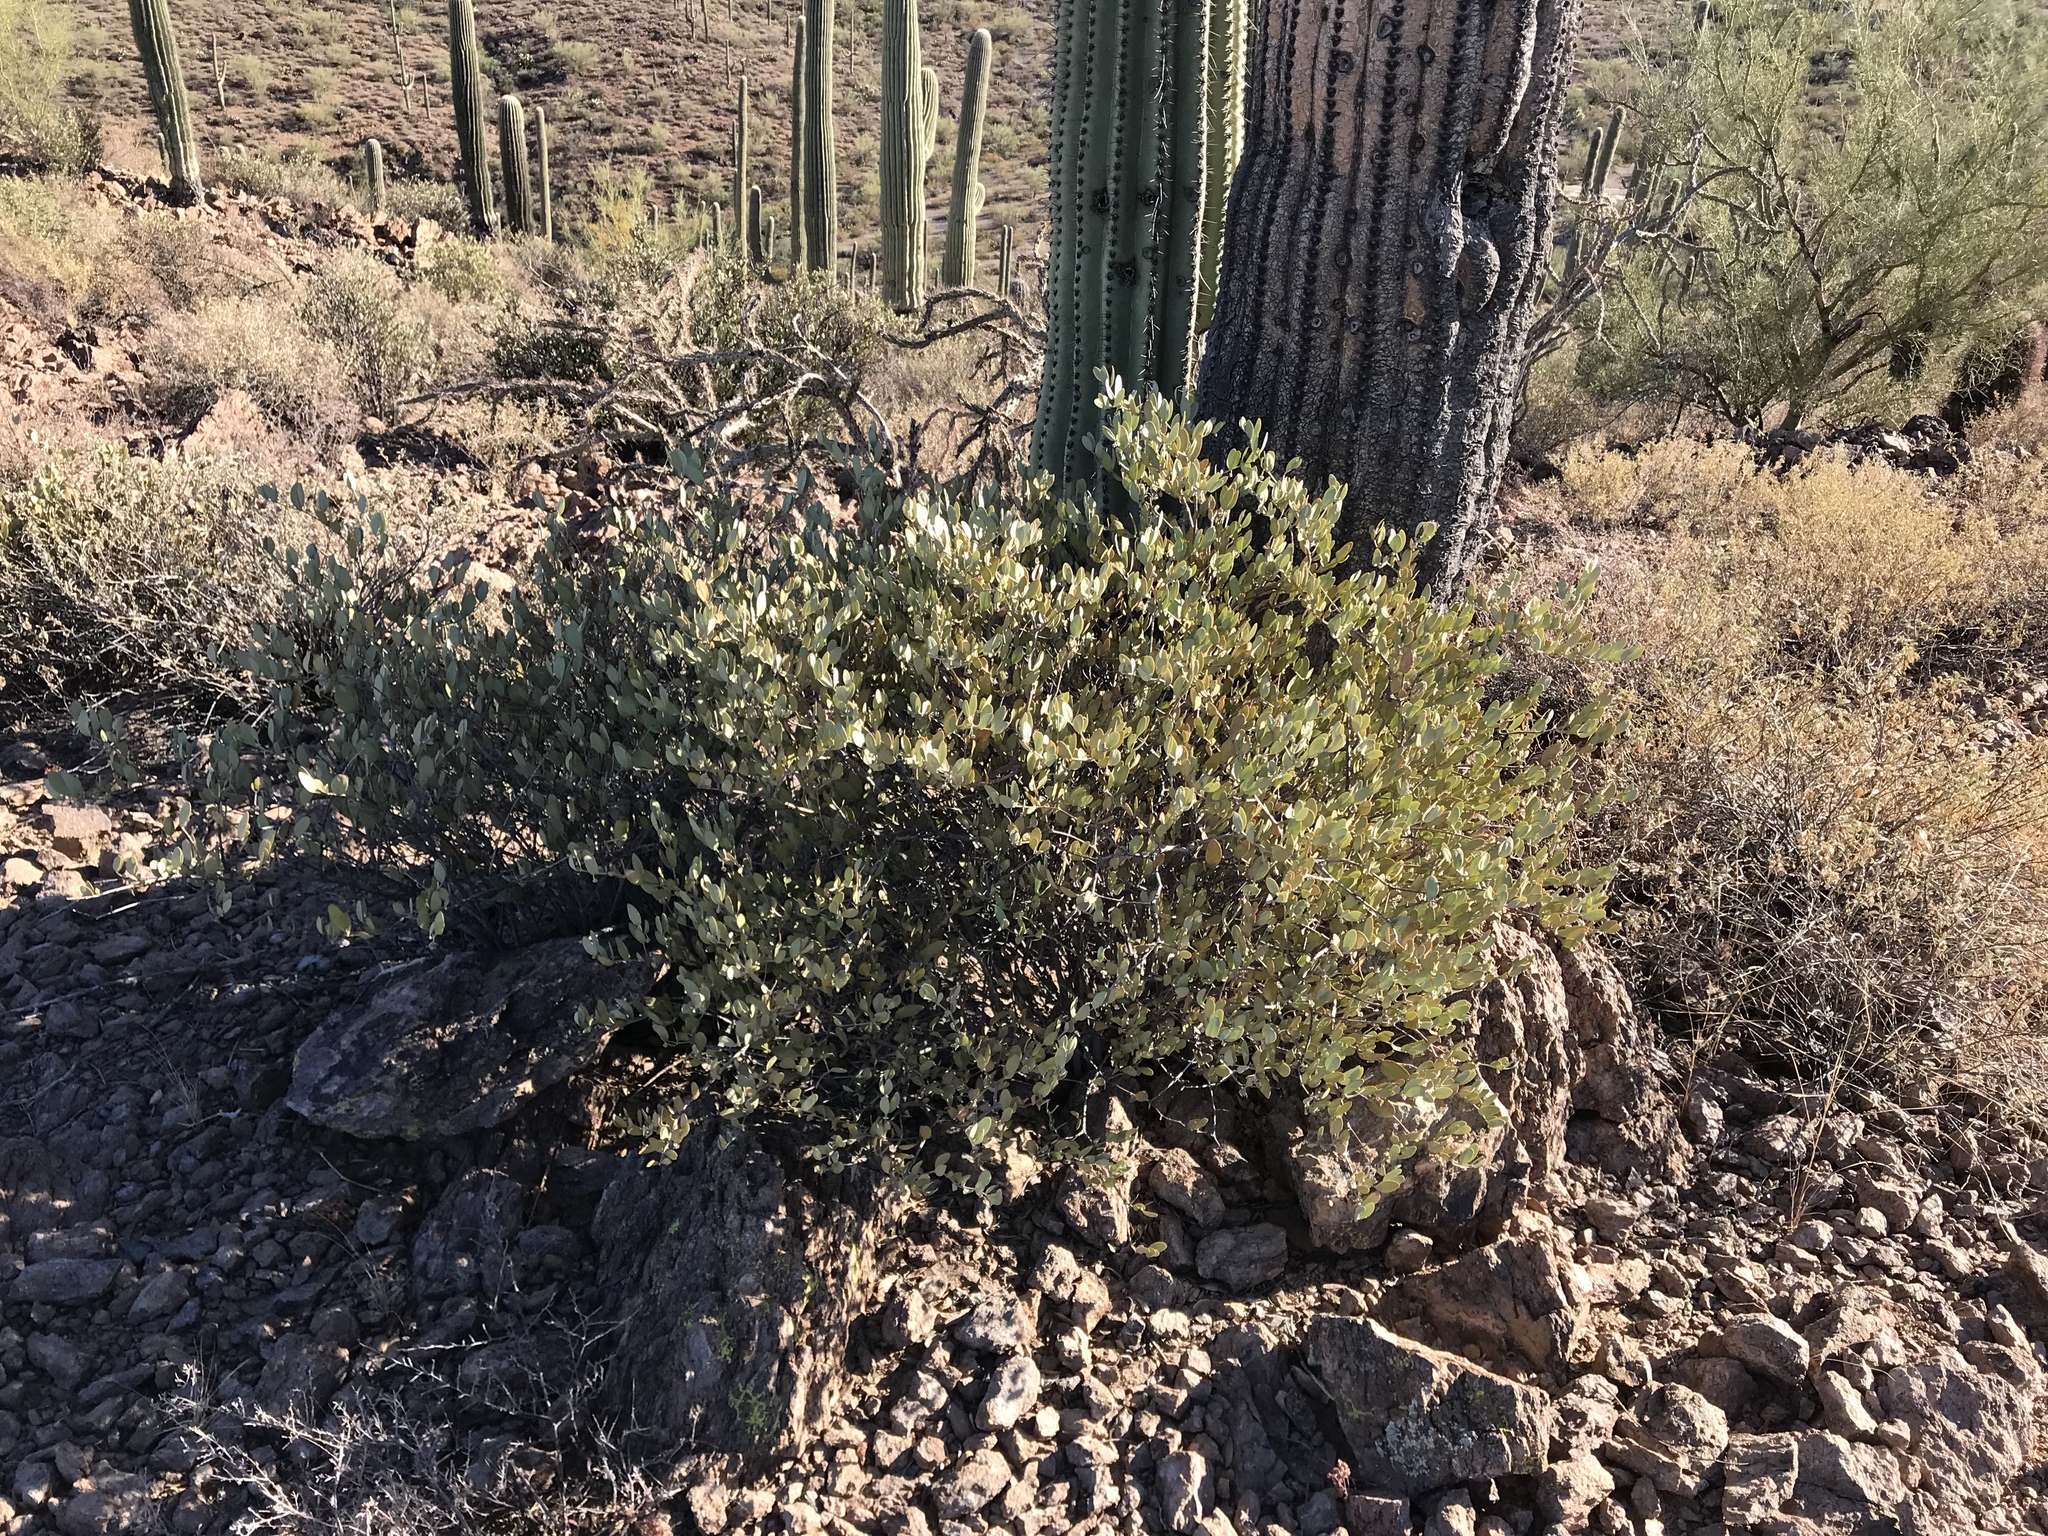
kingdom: Plantae
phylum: Tracheophyta
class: Magnoliopsida
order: Caryophyllales
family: Simmondsiaceae
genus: Simmondsia
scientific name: Simmondsia chinensis
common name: Jojoba
